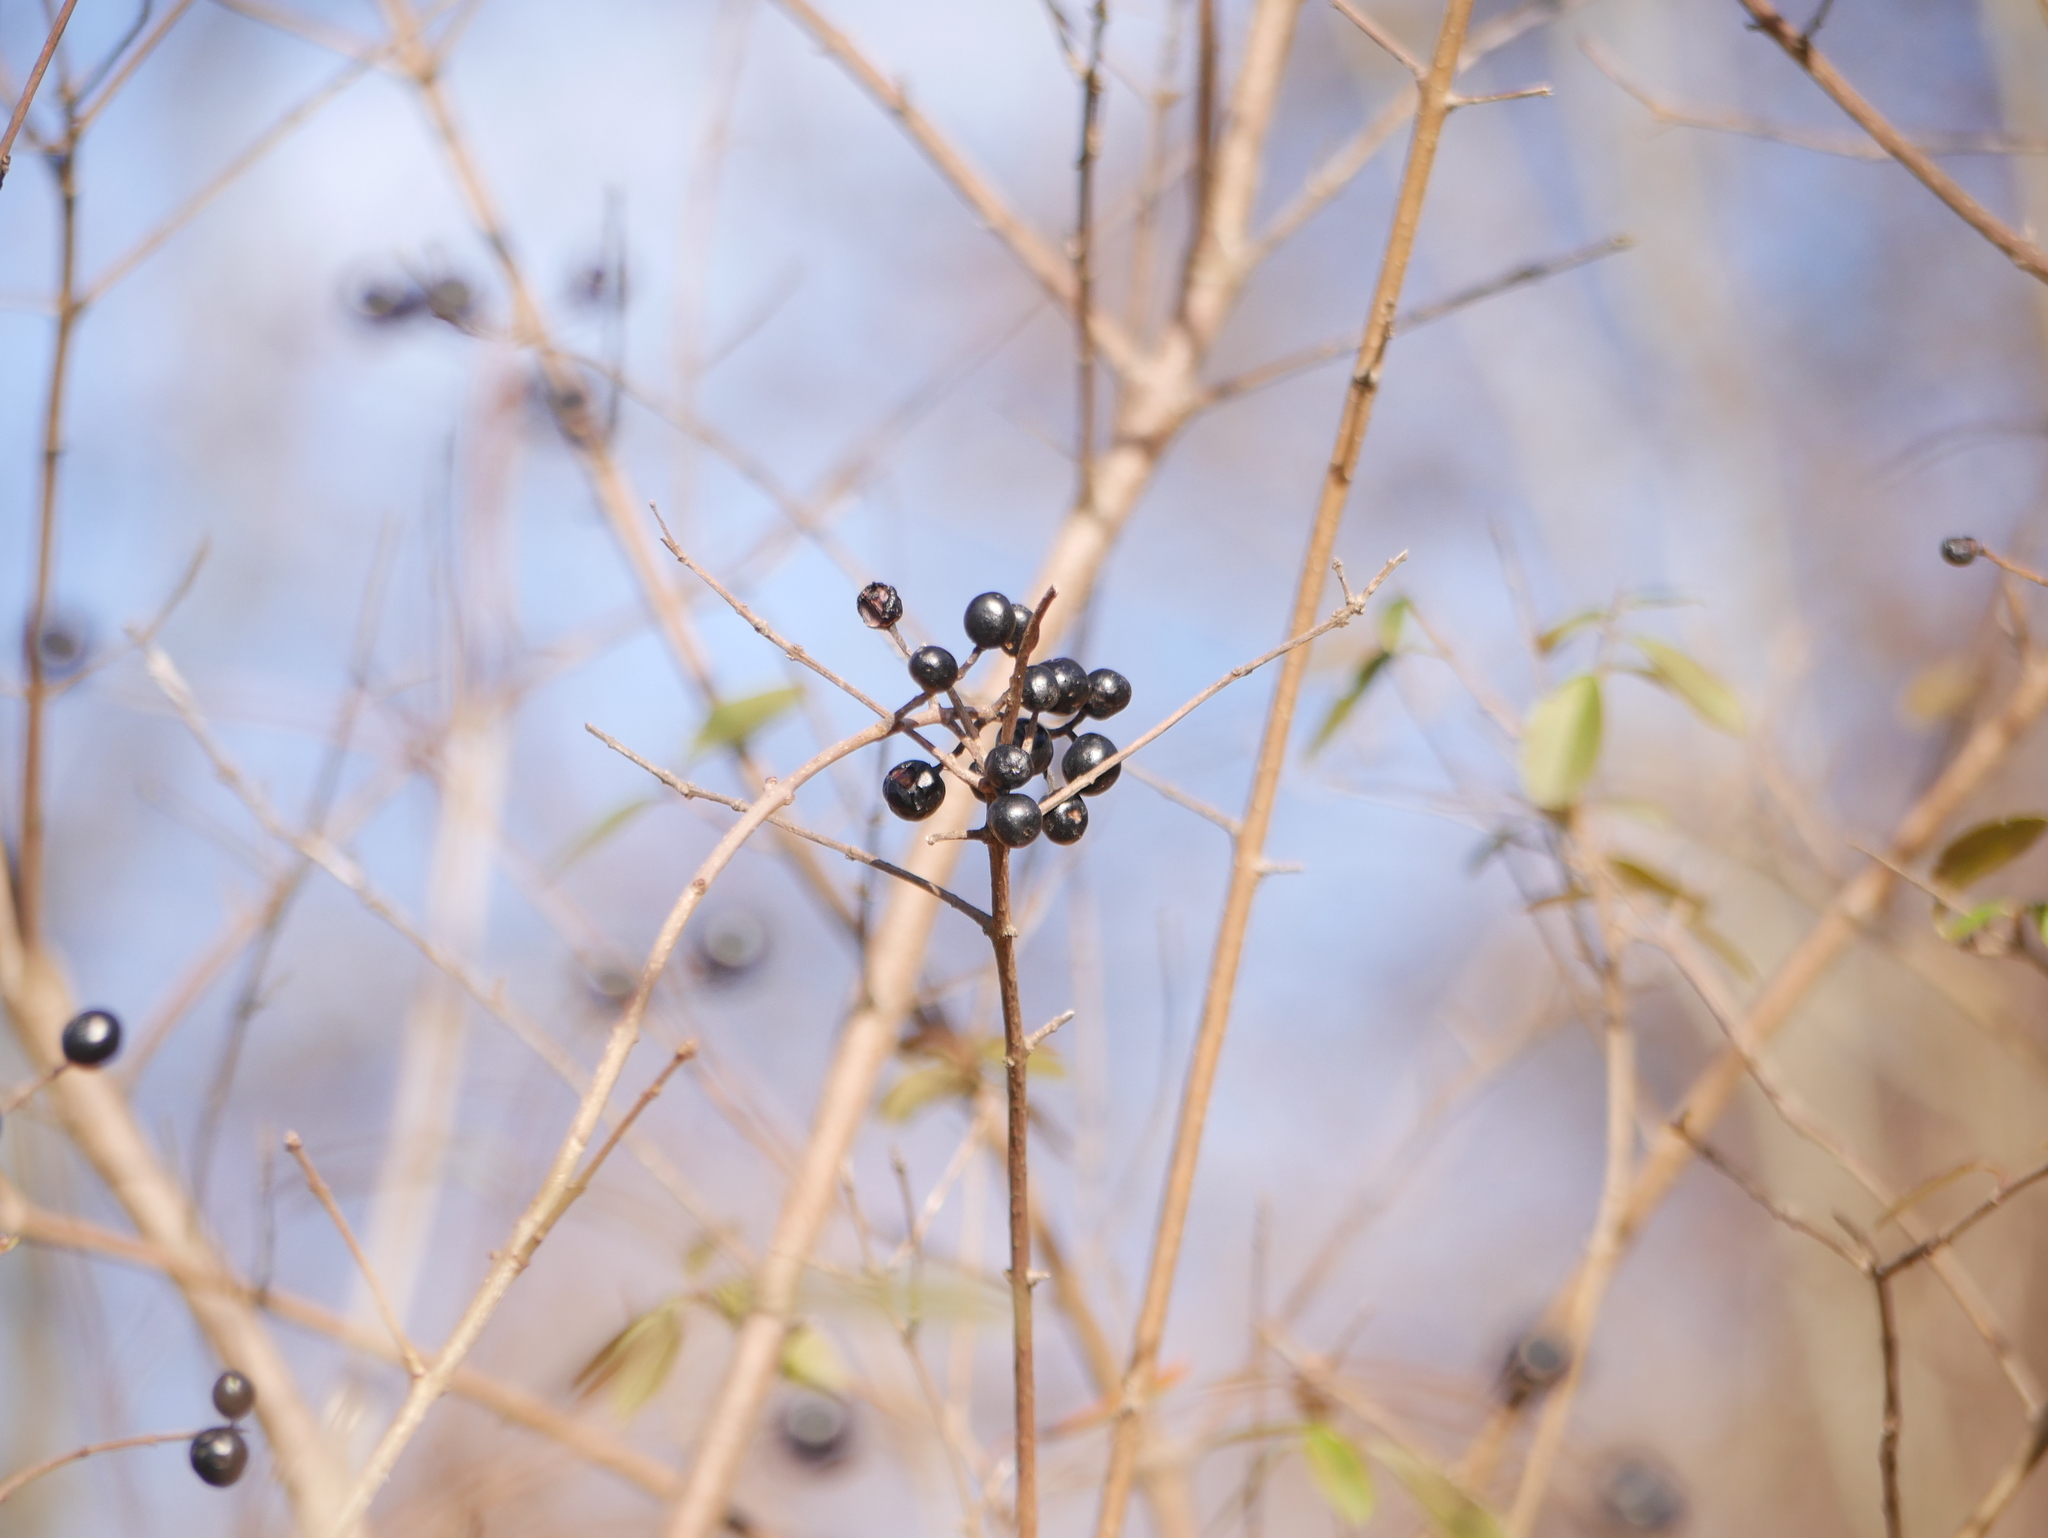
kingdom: Plantae
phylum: Tracheophyta
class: Magnoliopsida
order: Lamiales
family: Oleaceae
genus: Ligustrum
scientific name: Ligustrum vulgare
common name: Wild privet
